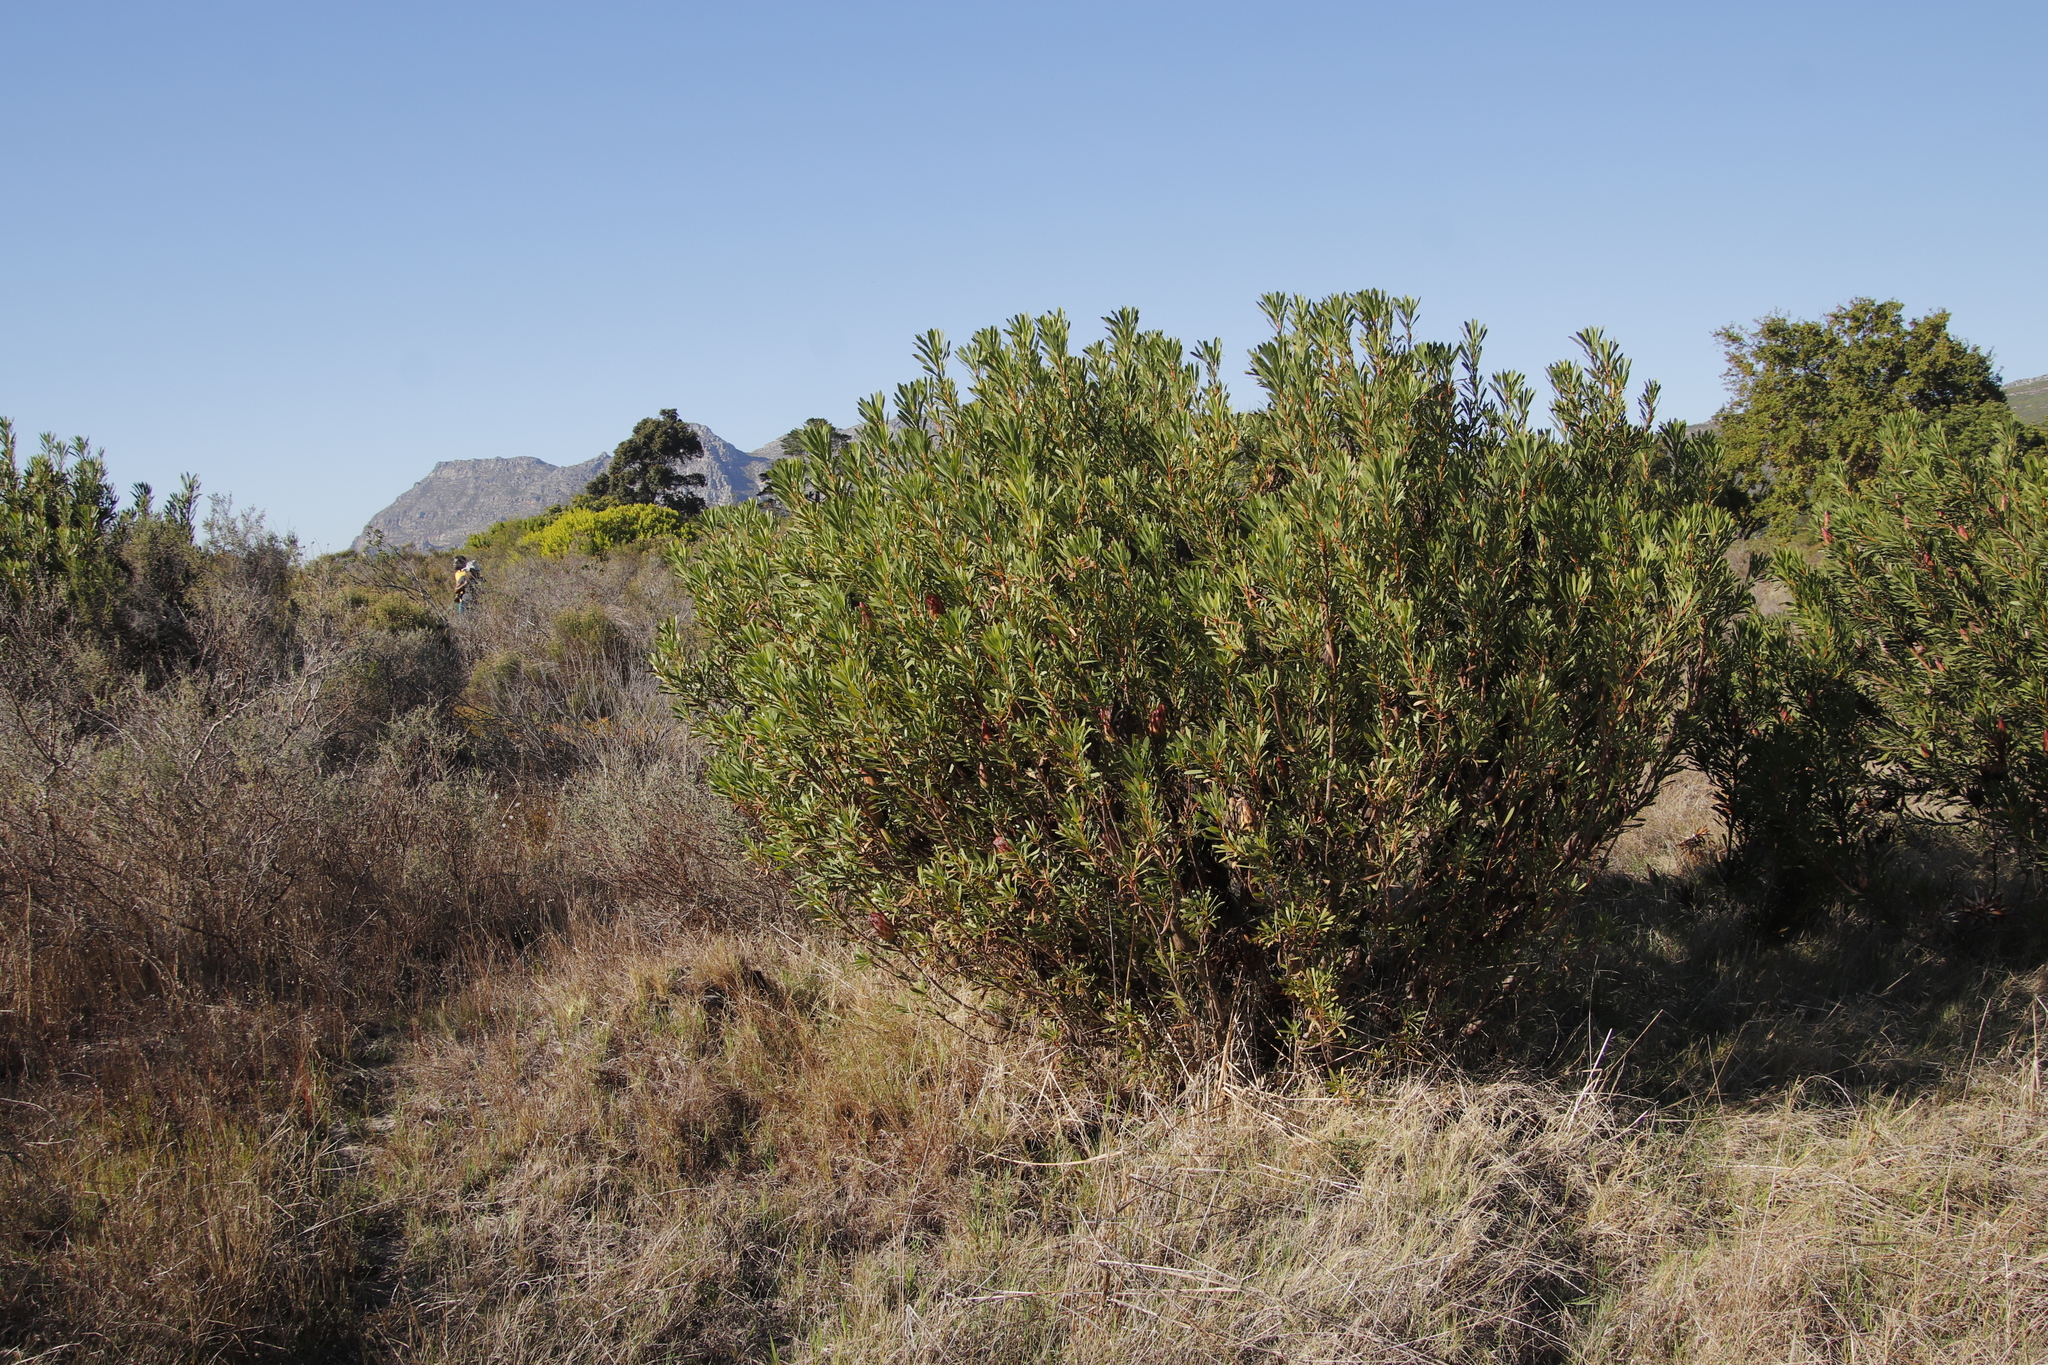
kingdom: Plantae
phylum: Tracheophyta
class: Magnoliopsida
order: Proteales
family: Proteaceae
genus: Protea
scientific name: Protea repens
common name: Sugarbush
